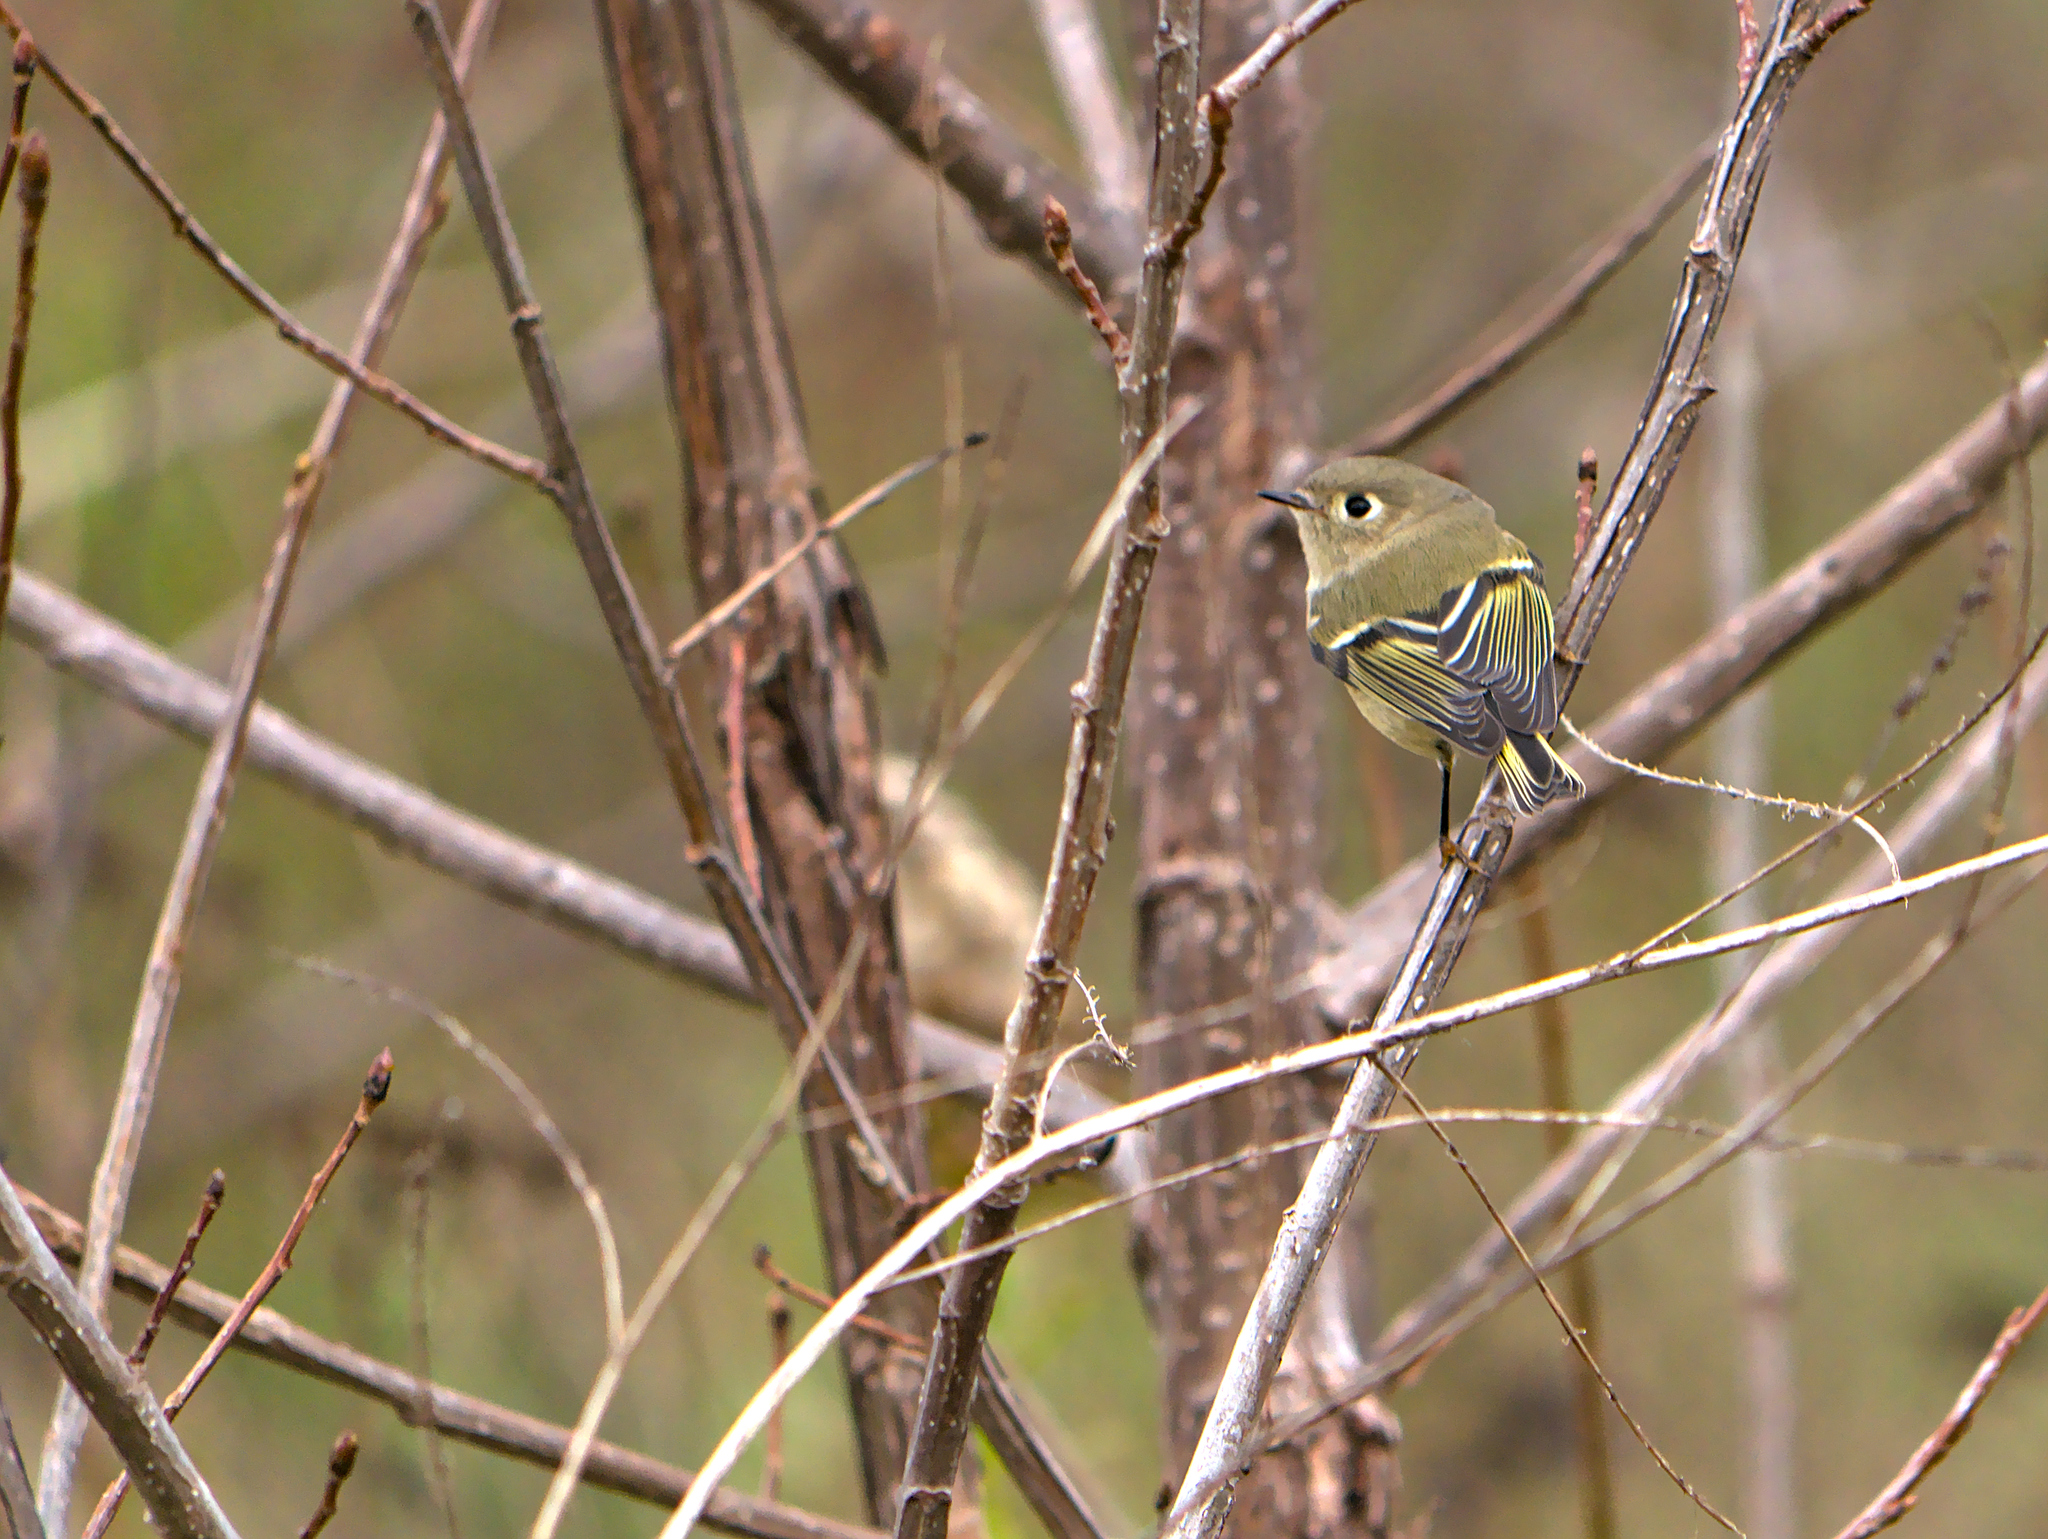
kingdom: Animalia
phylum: Chordata
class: Aves
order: Passeriformes
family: Regulidae
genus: Regulus
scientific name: Regulus calendula
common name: Ruby-crowned kinglet
